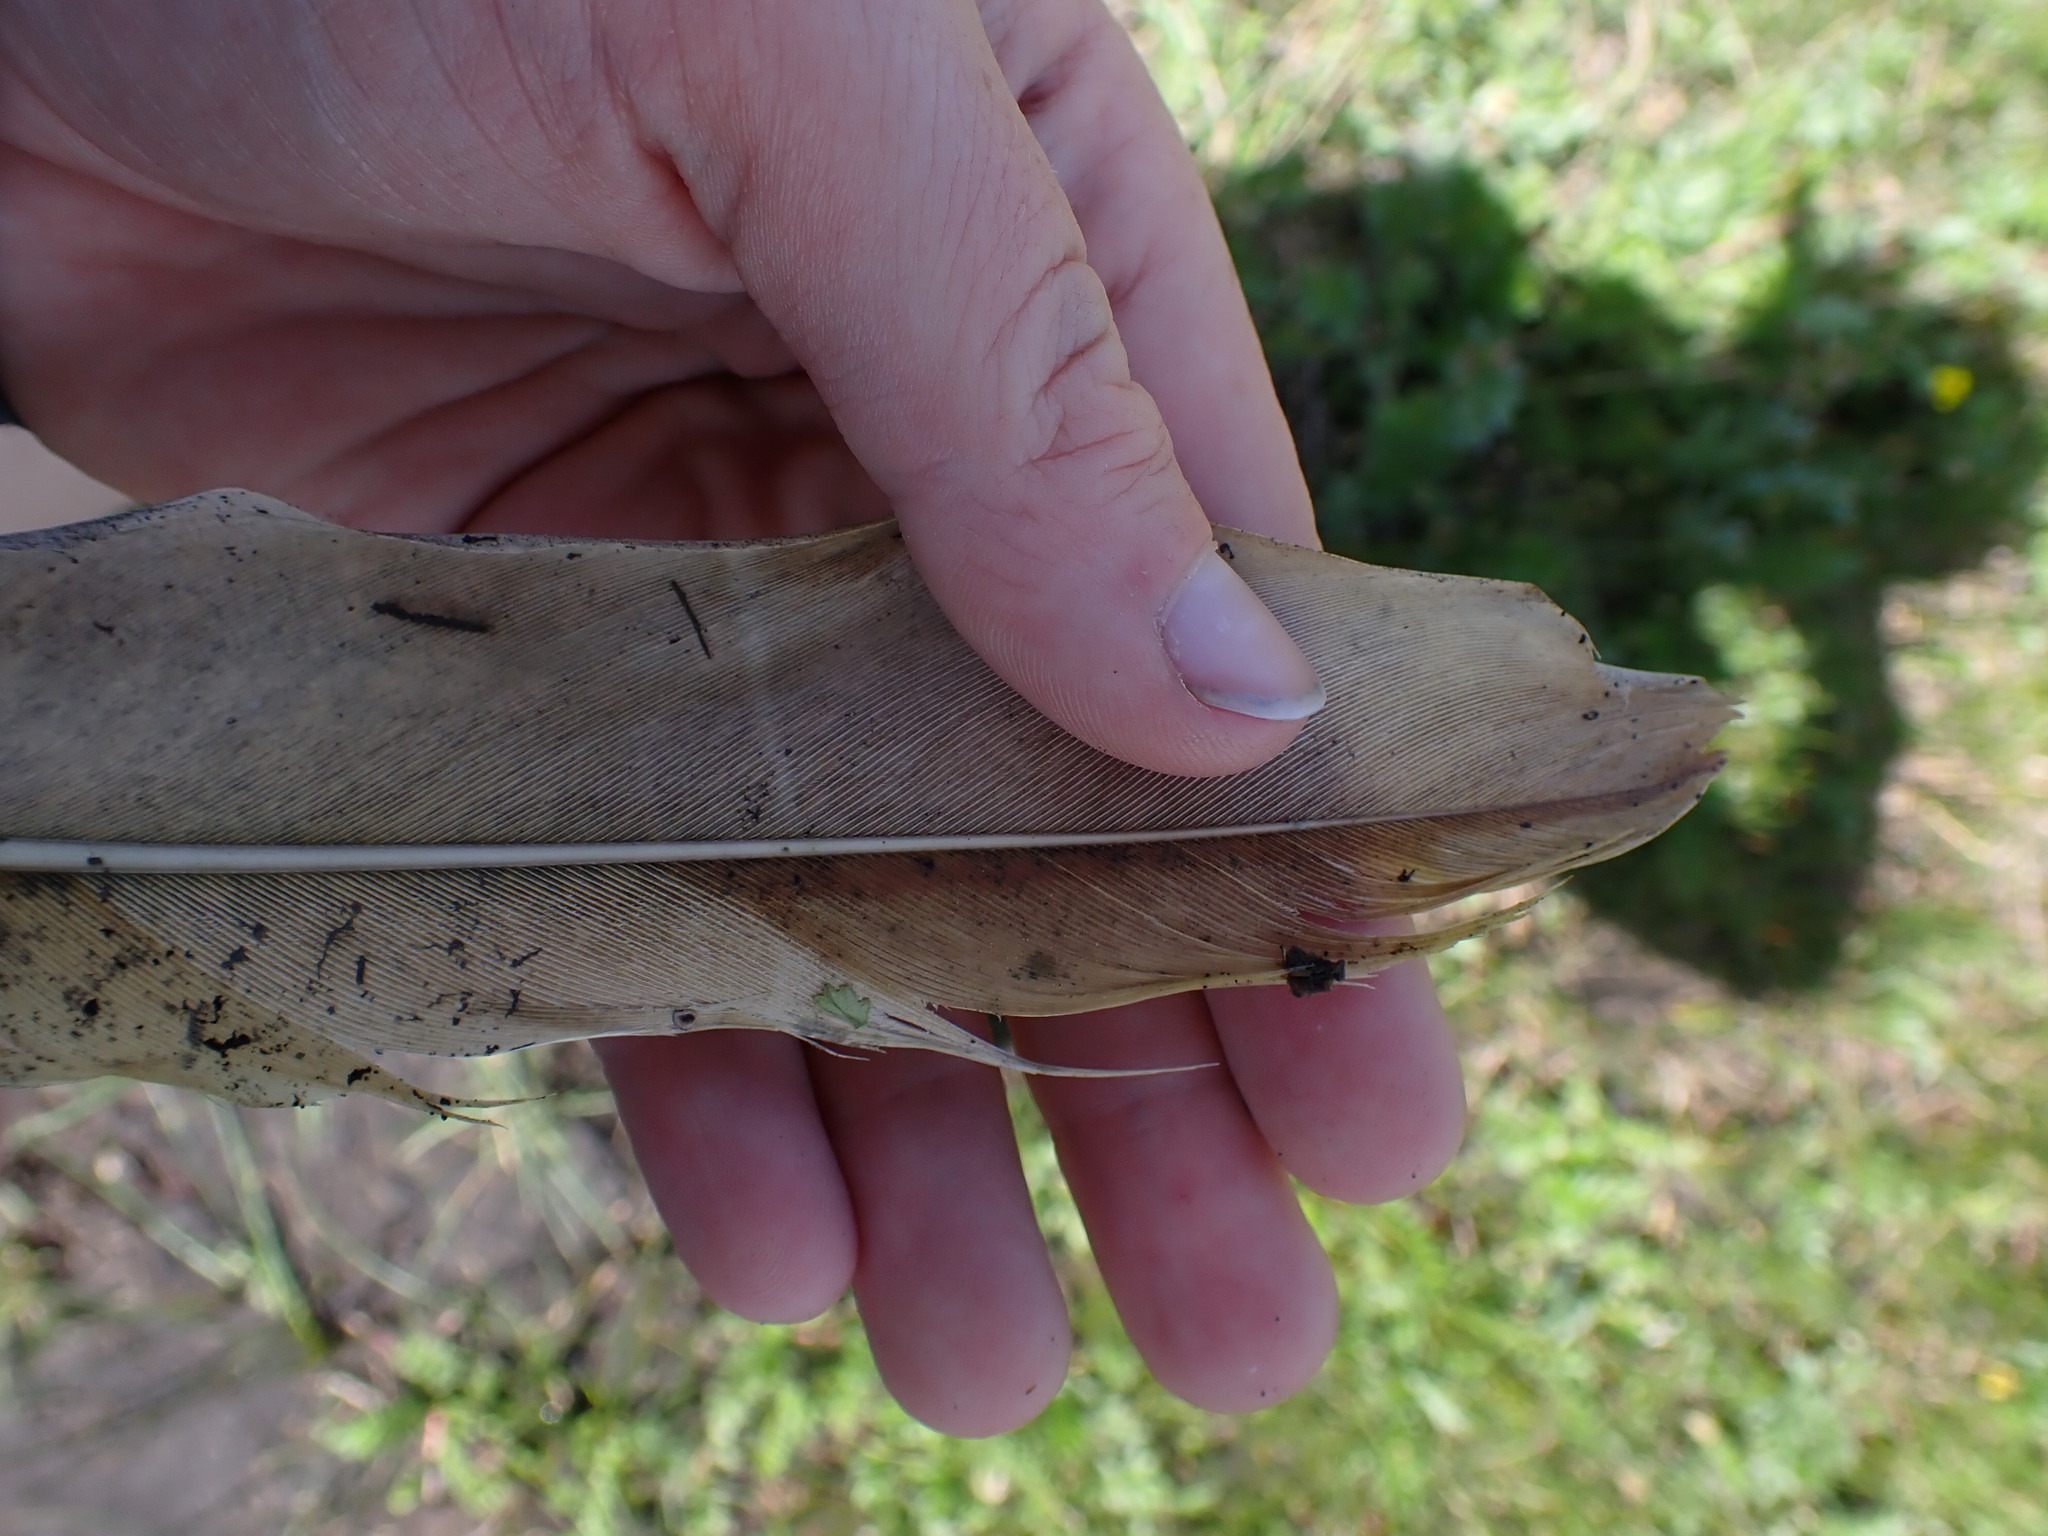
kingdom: Animalia
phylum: Chordata
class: Aves
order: Gruiformes
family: Gruidae
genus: Grus
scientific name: Grus canadensis
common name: Sandhill crane
